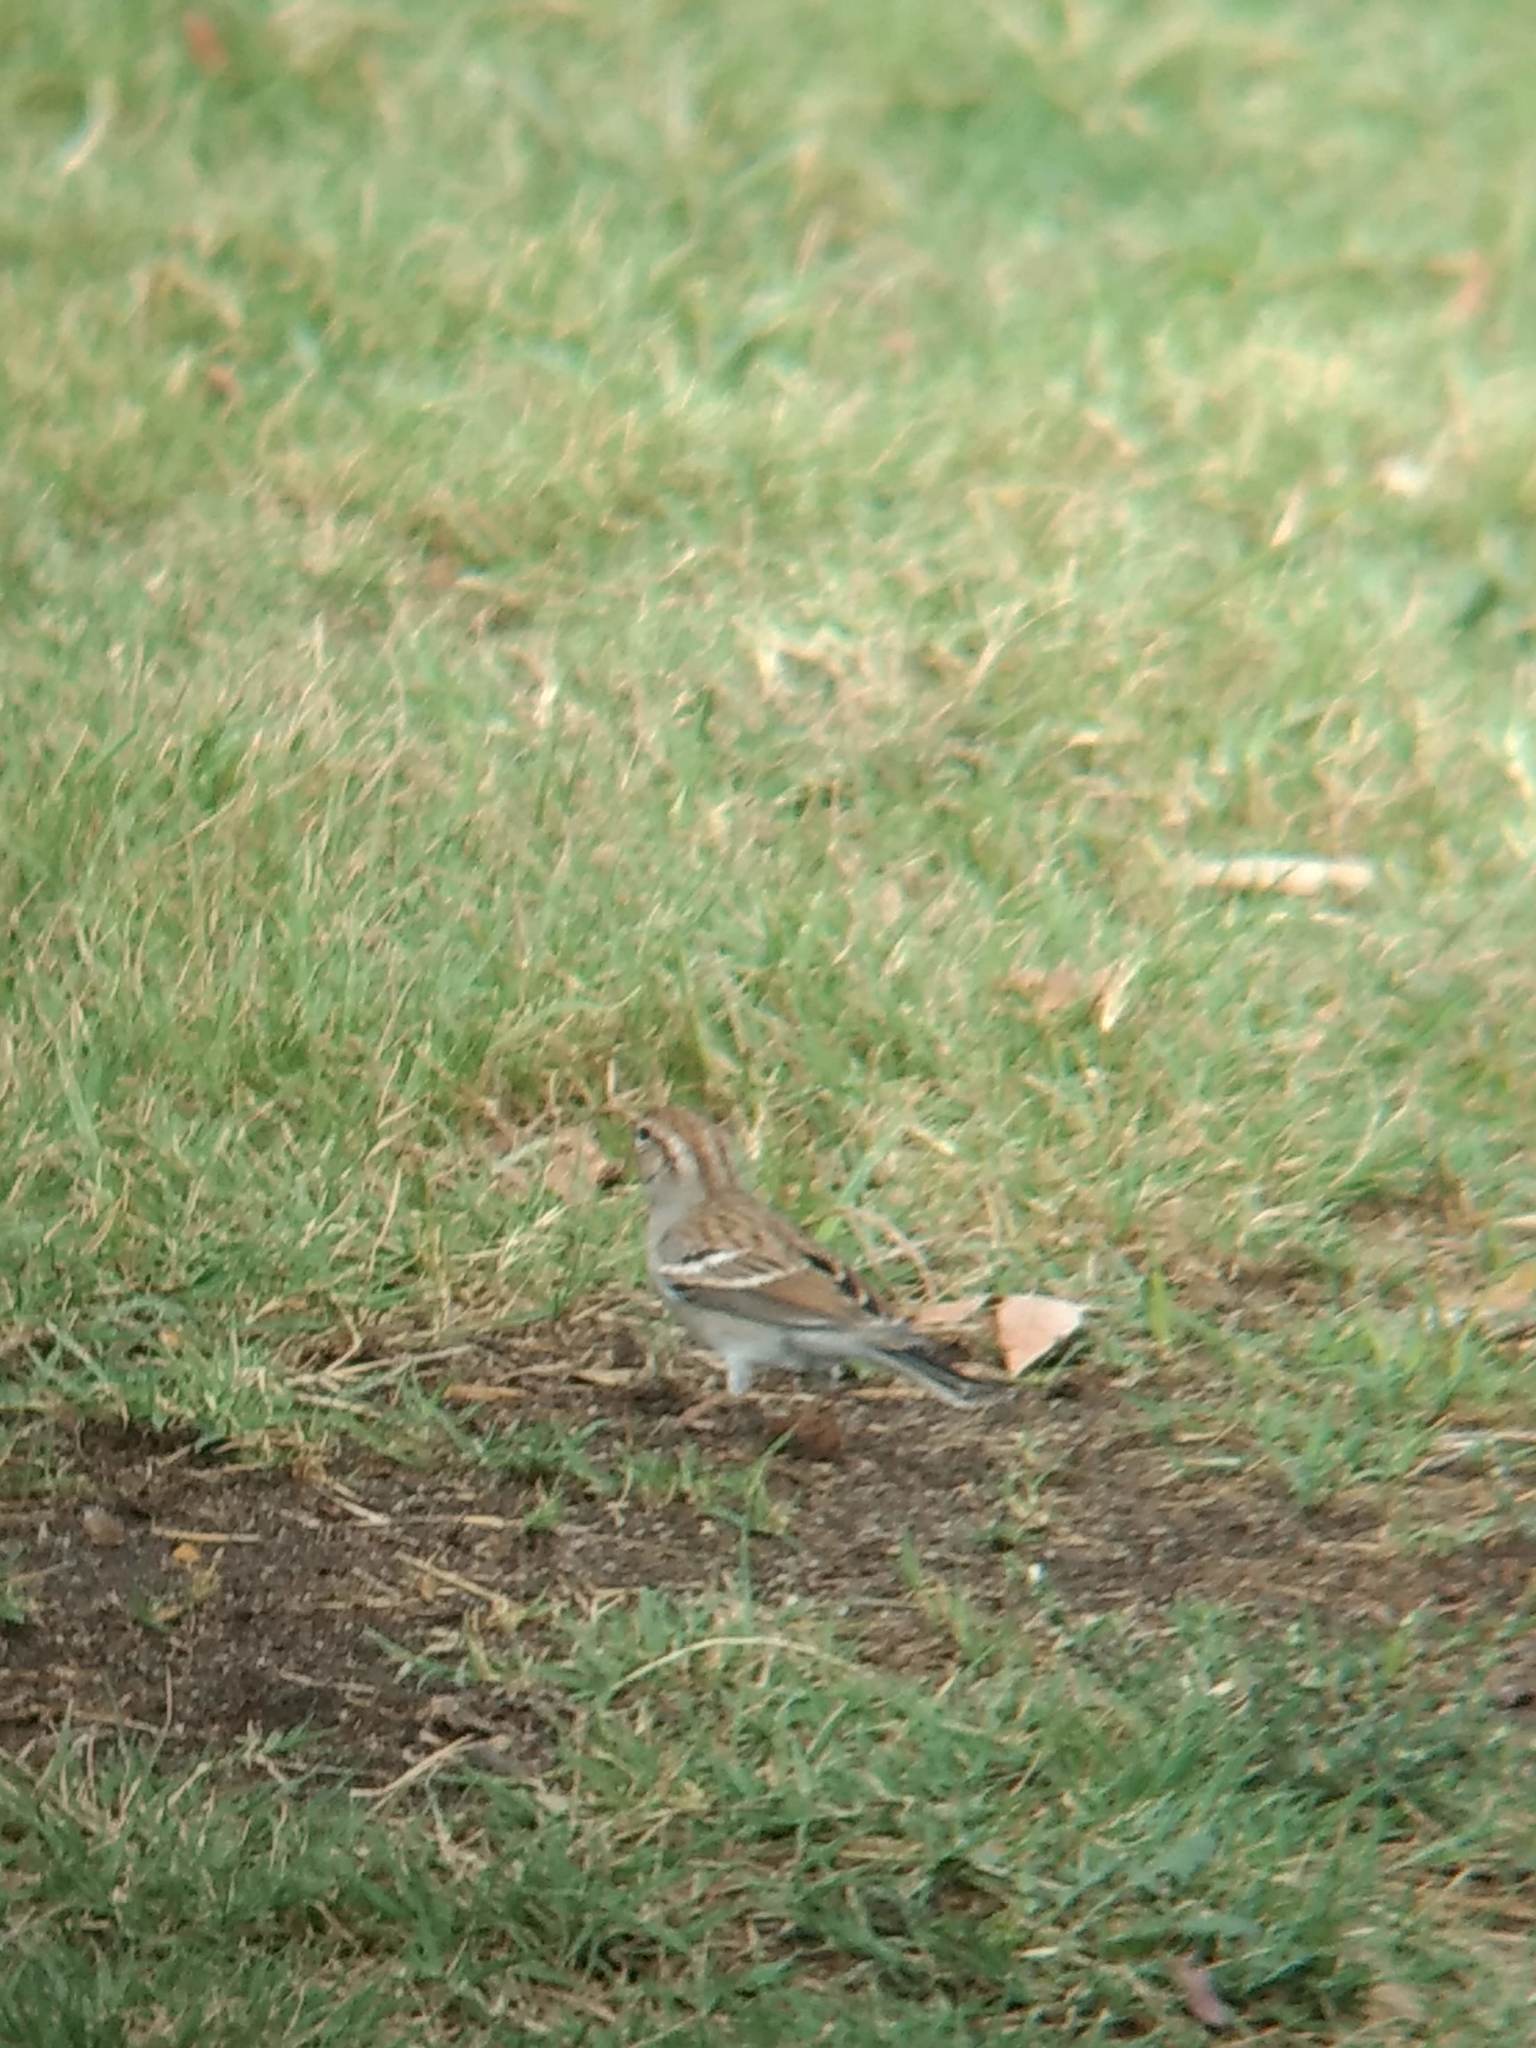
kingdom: Animalia
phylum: Chordata
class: Aves
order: Passeriformes
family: Passerellidae
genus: Spizella
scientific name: Spizella passerina
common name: Chipping sparrow
